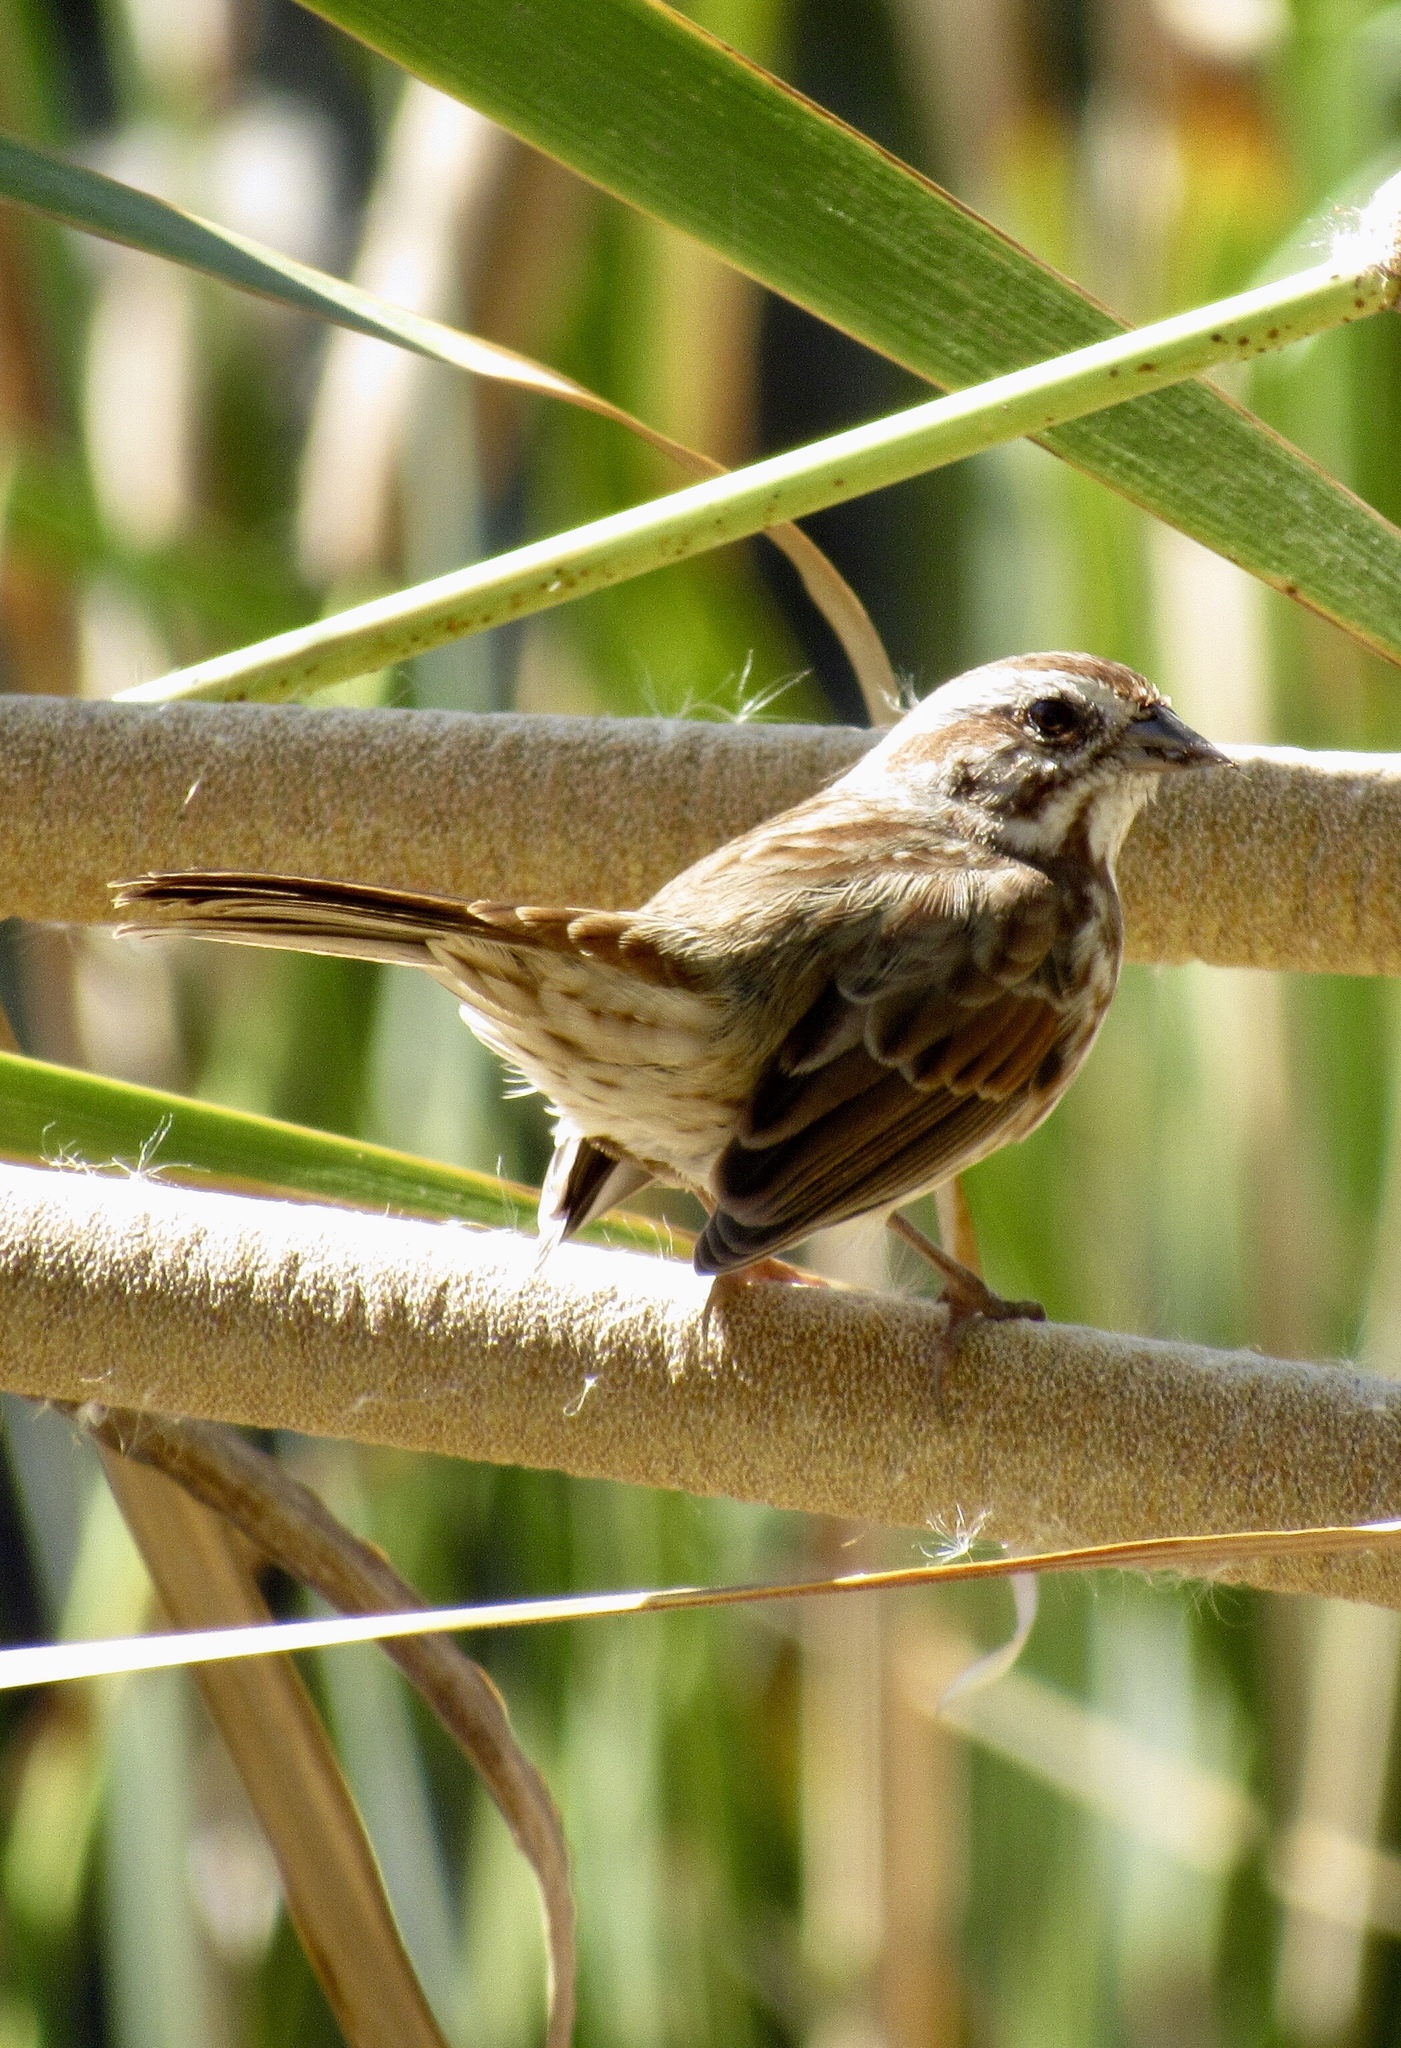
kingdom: Animalia
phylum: Chordata
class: Aves
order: Passeriformes
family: Passerellidae
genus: Melospiza
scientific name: Melospiza melodia
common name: Song sparrow
